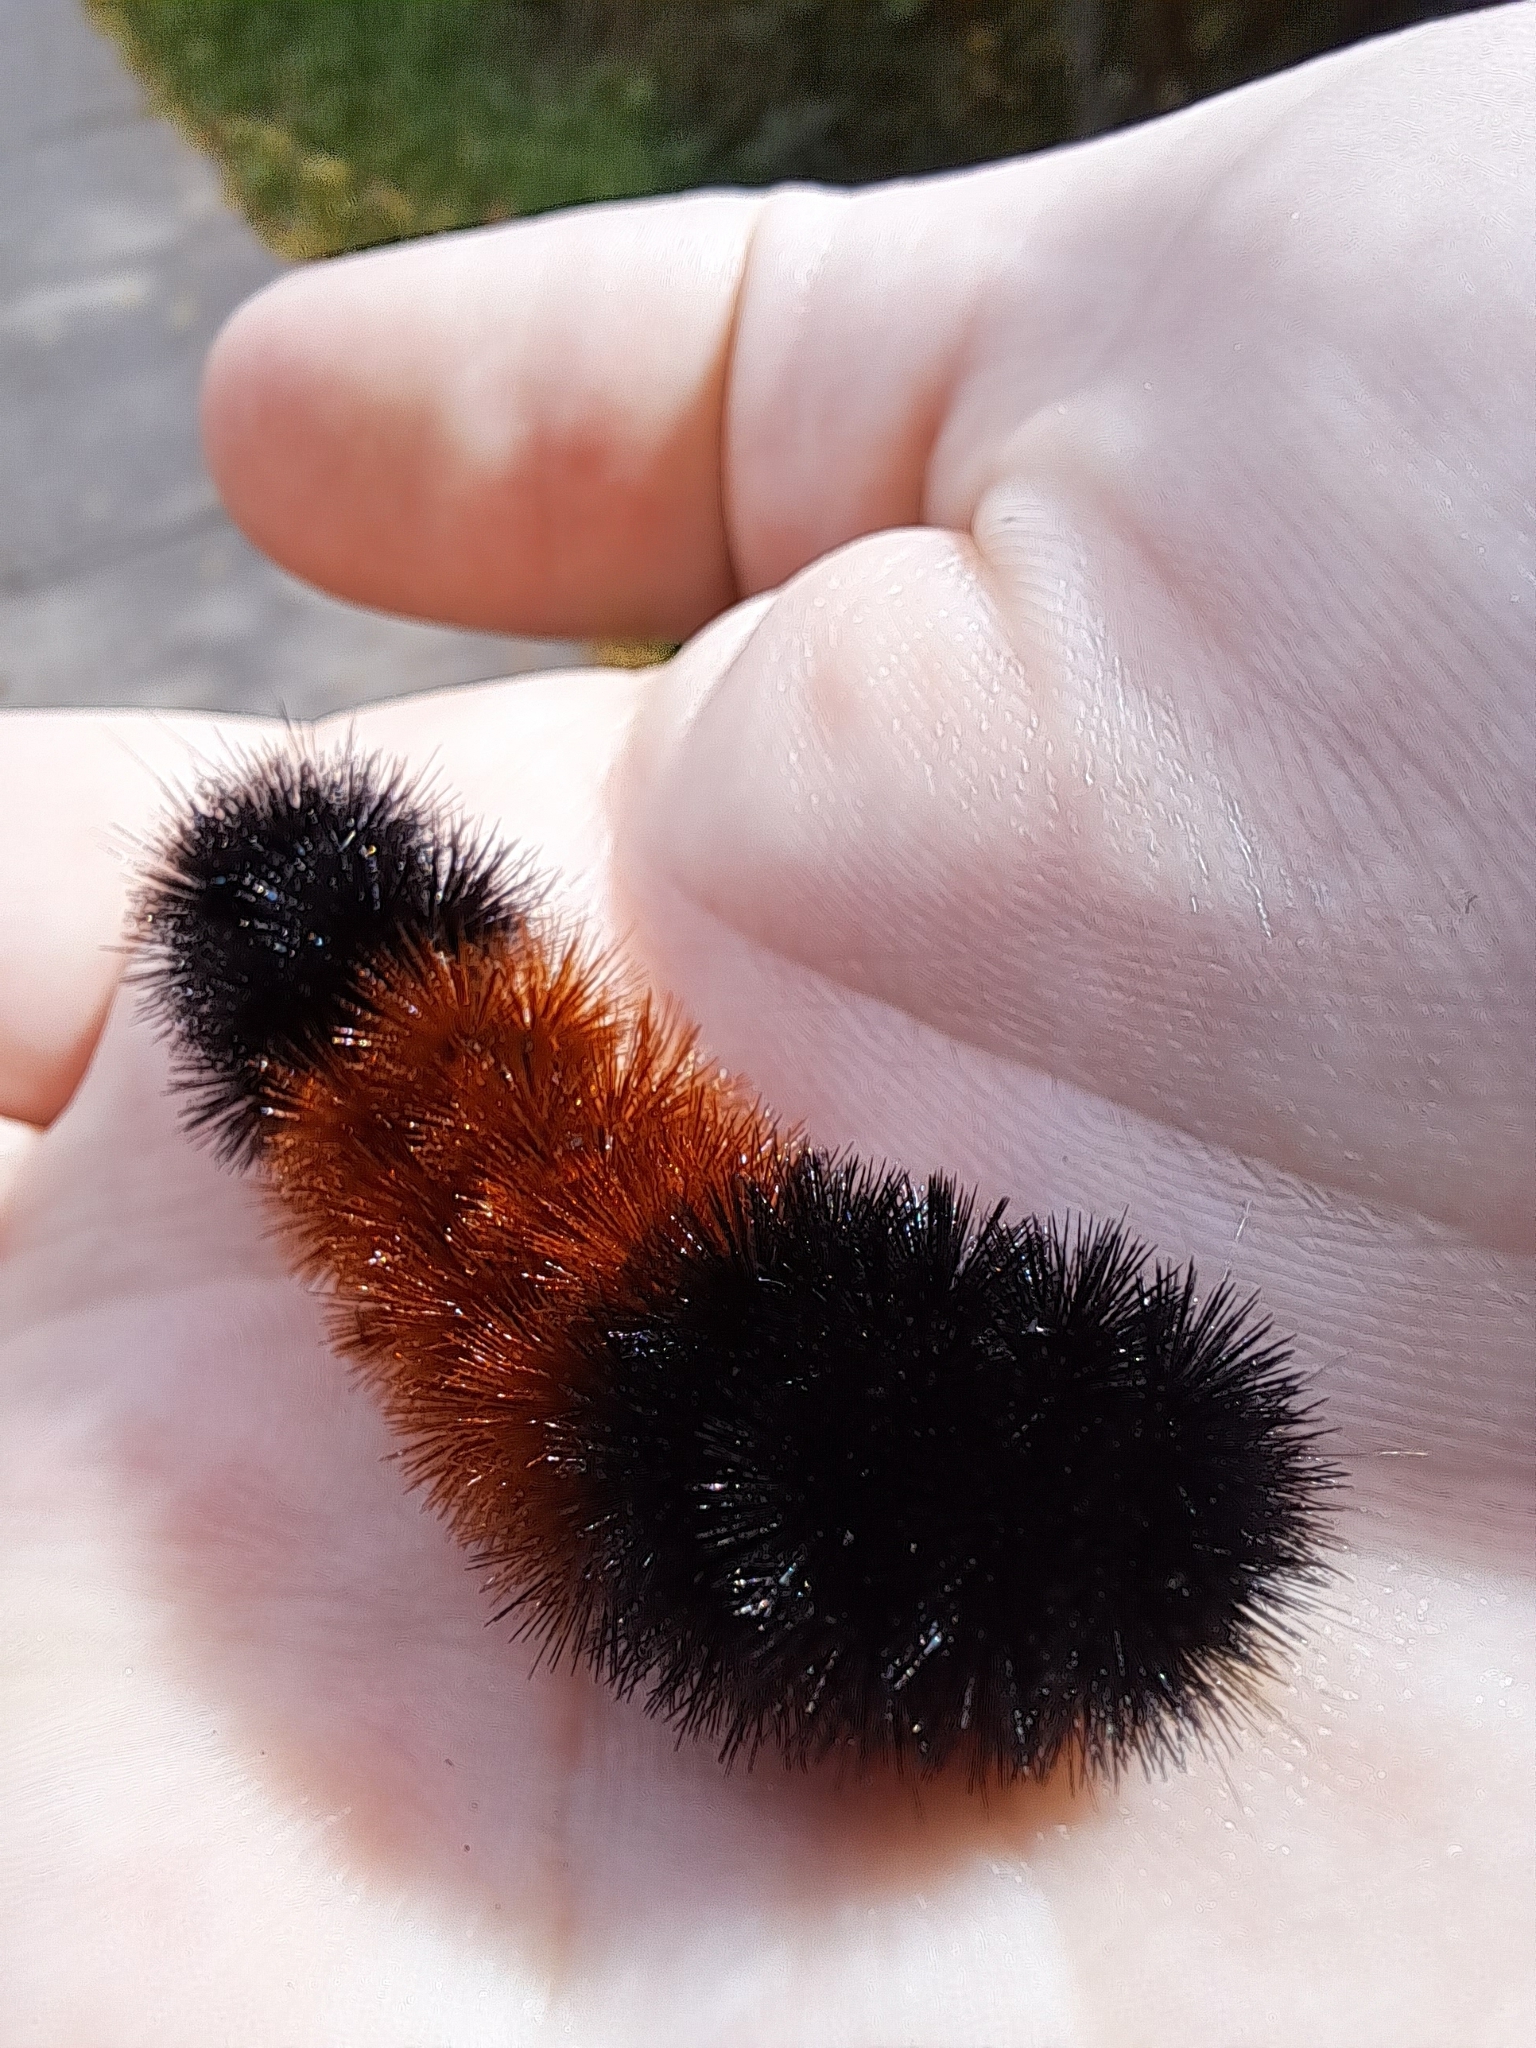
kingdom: Animalia
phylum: Arthropoda
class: Insecta
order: Lepidoptera
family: Erebidae
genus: Pyrrharctia
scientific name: Pyrrharctia isabella
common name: Isabella tiger moth
